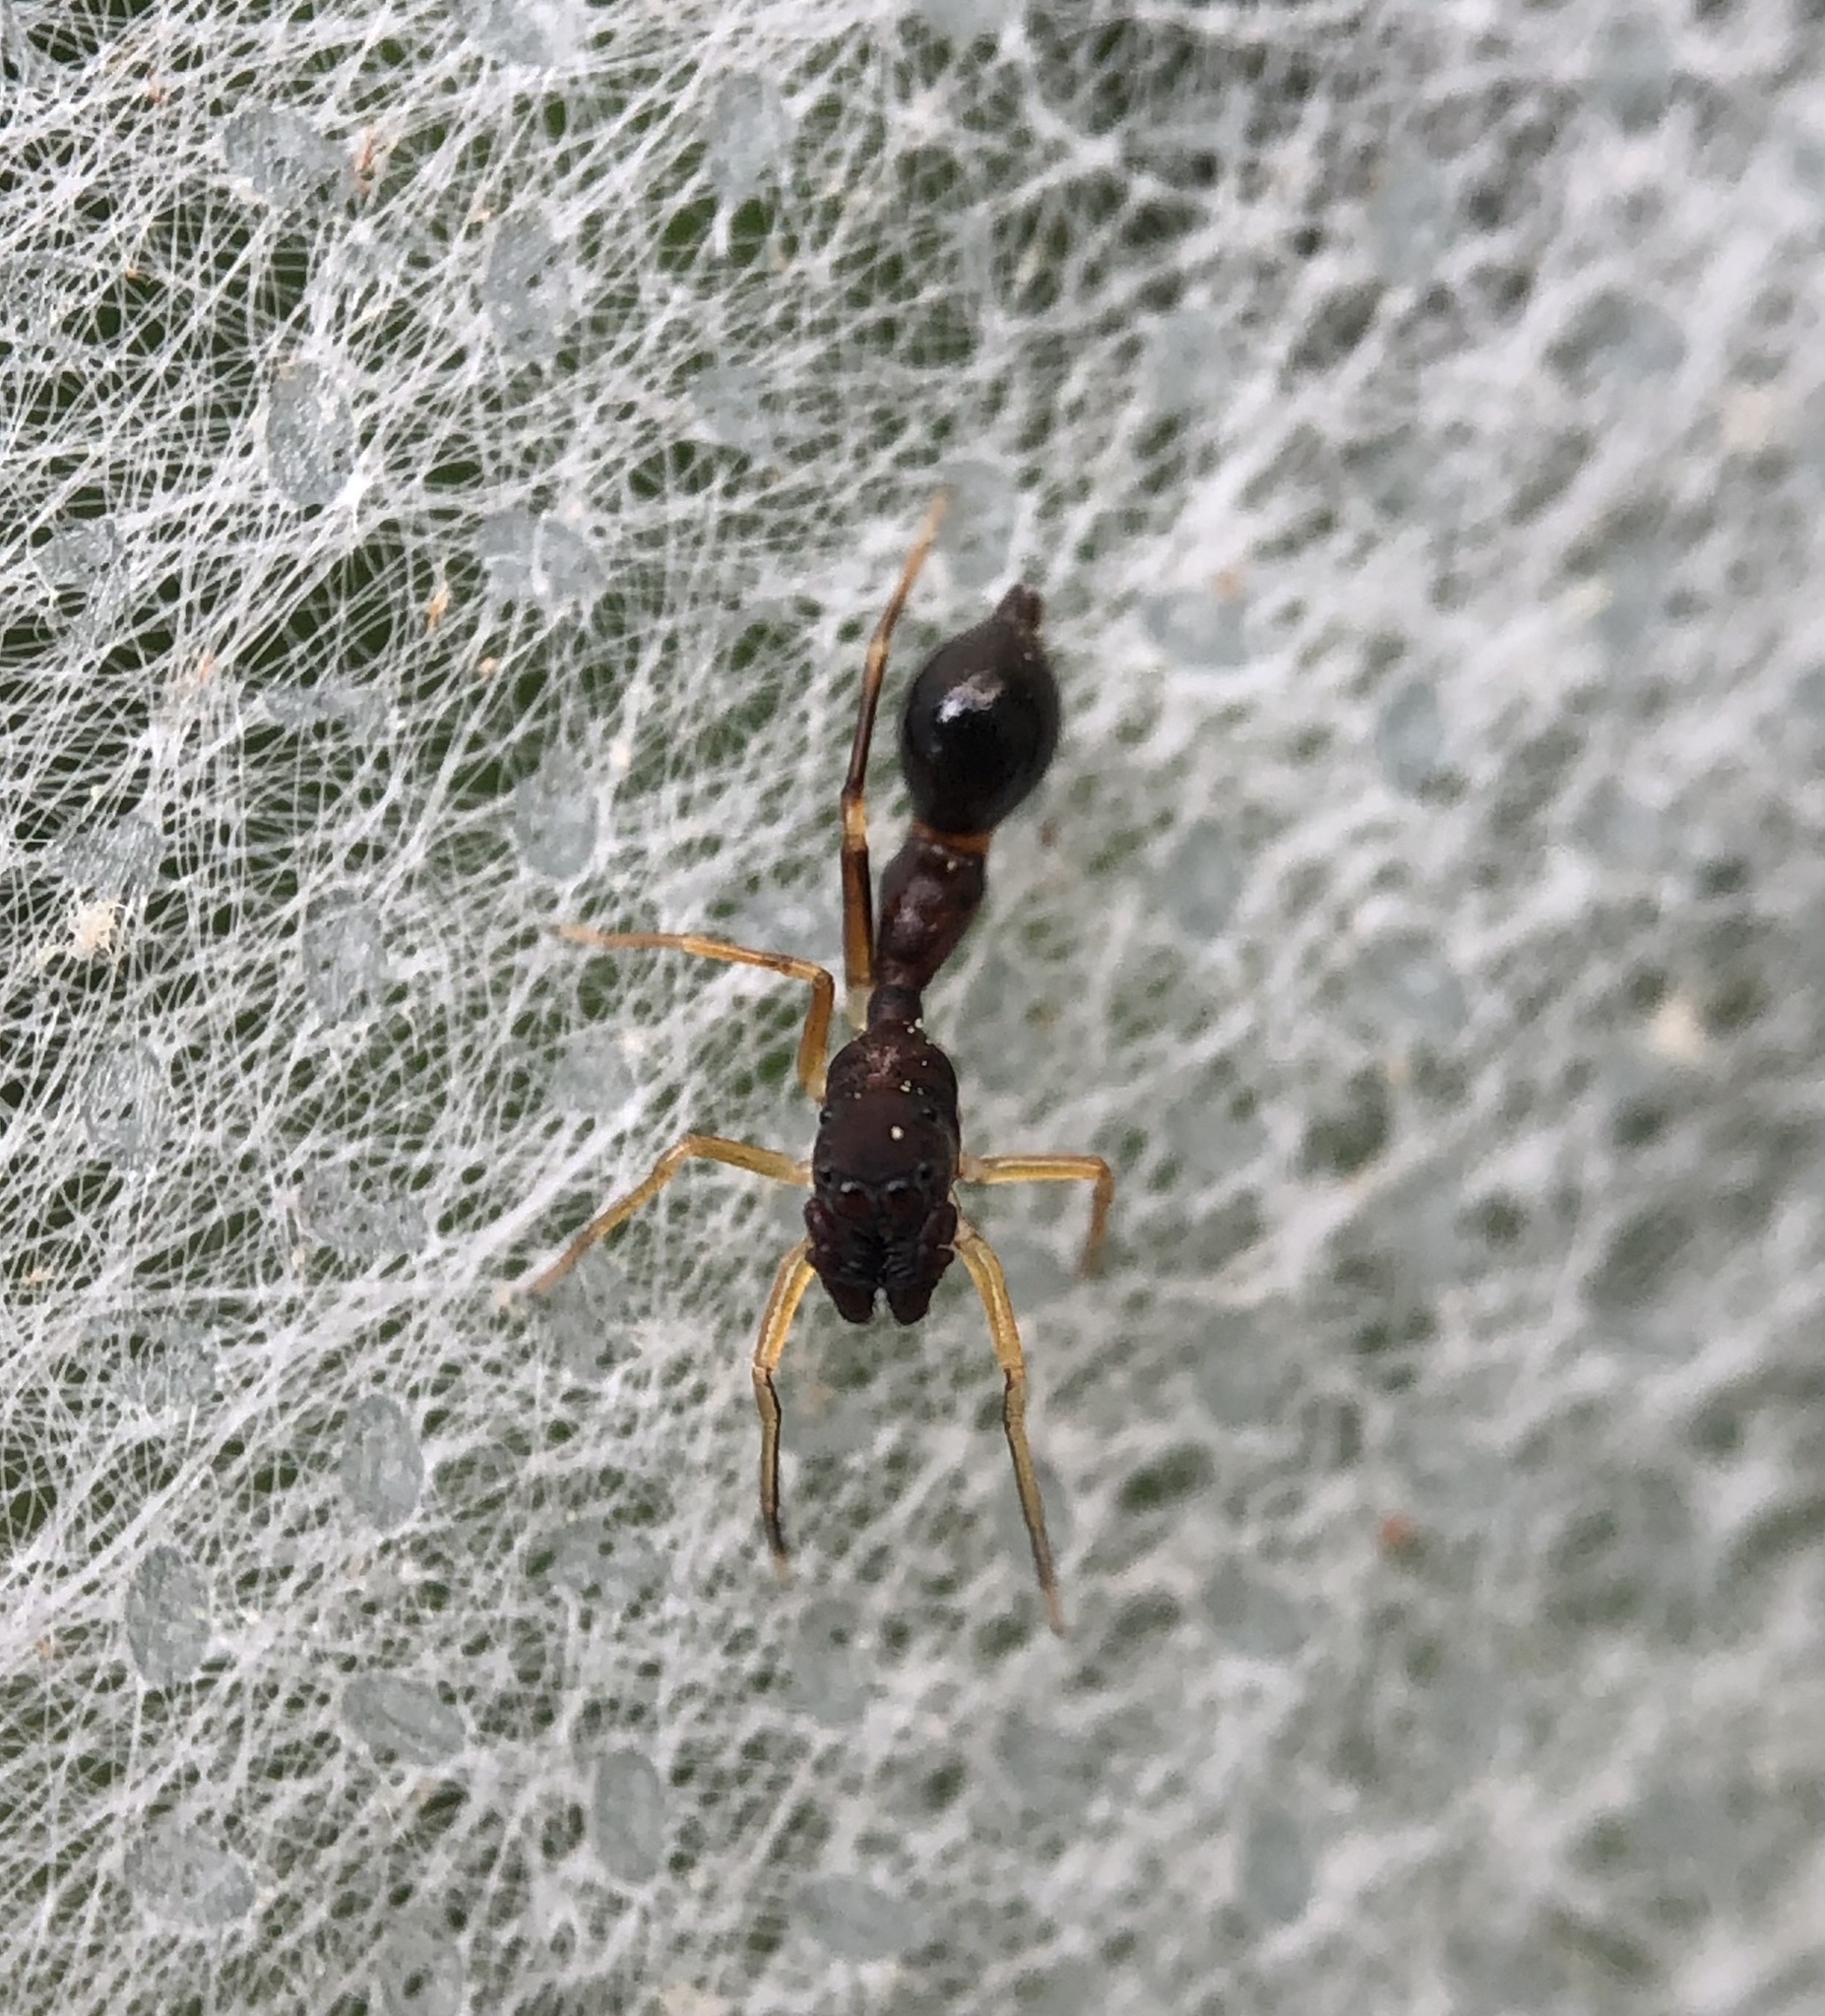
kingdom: Animalia
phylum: Arthropoda
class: Arachnida
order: Araneae
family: Salticidae
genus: Synemosyna
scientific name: Synemosyna formica
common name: Slender ant-mimic jumping spider
